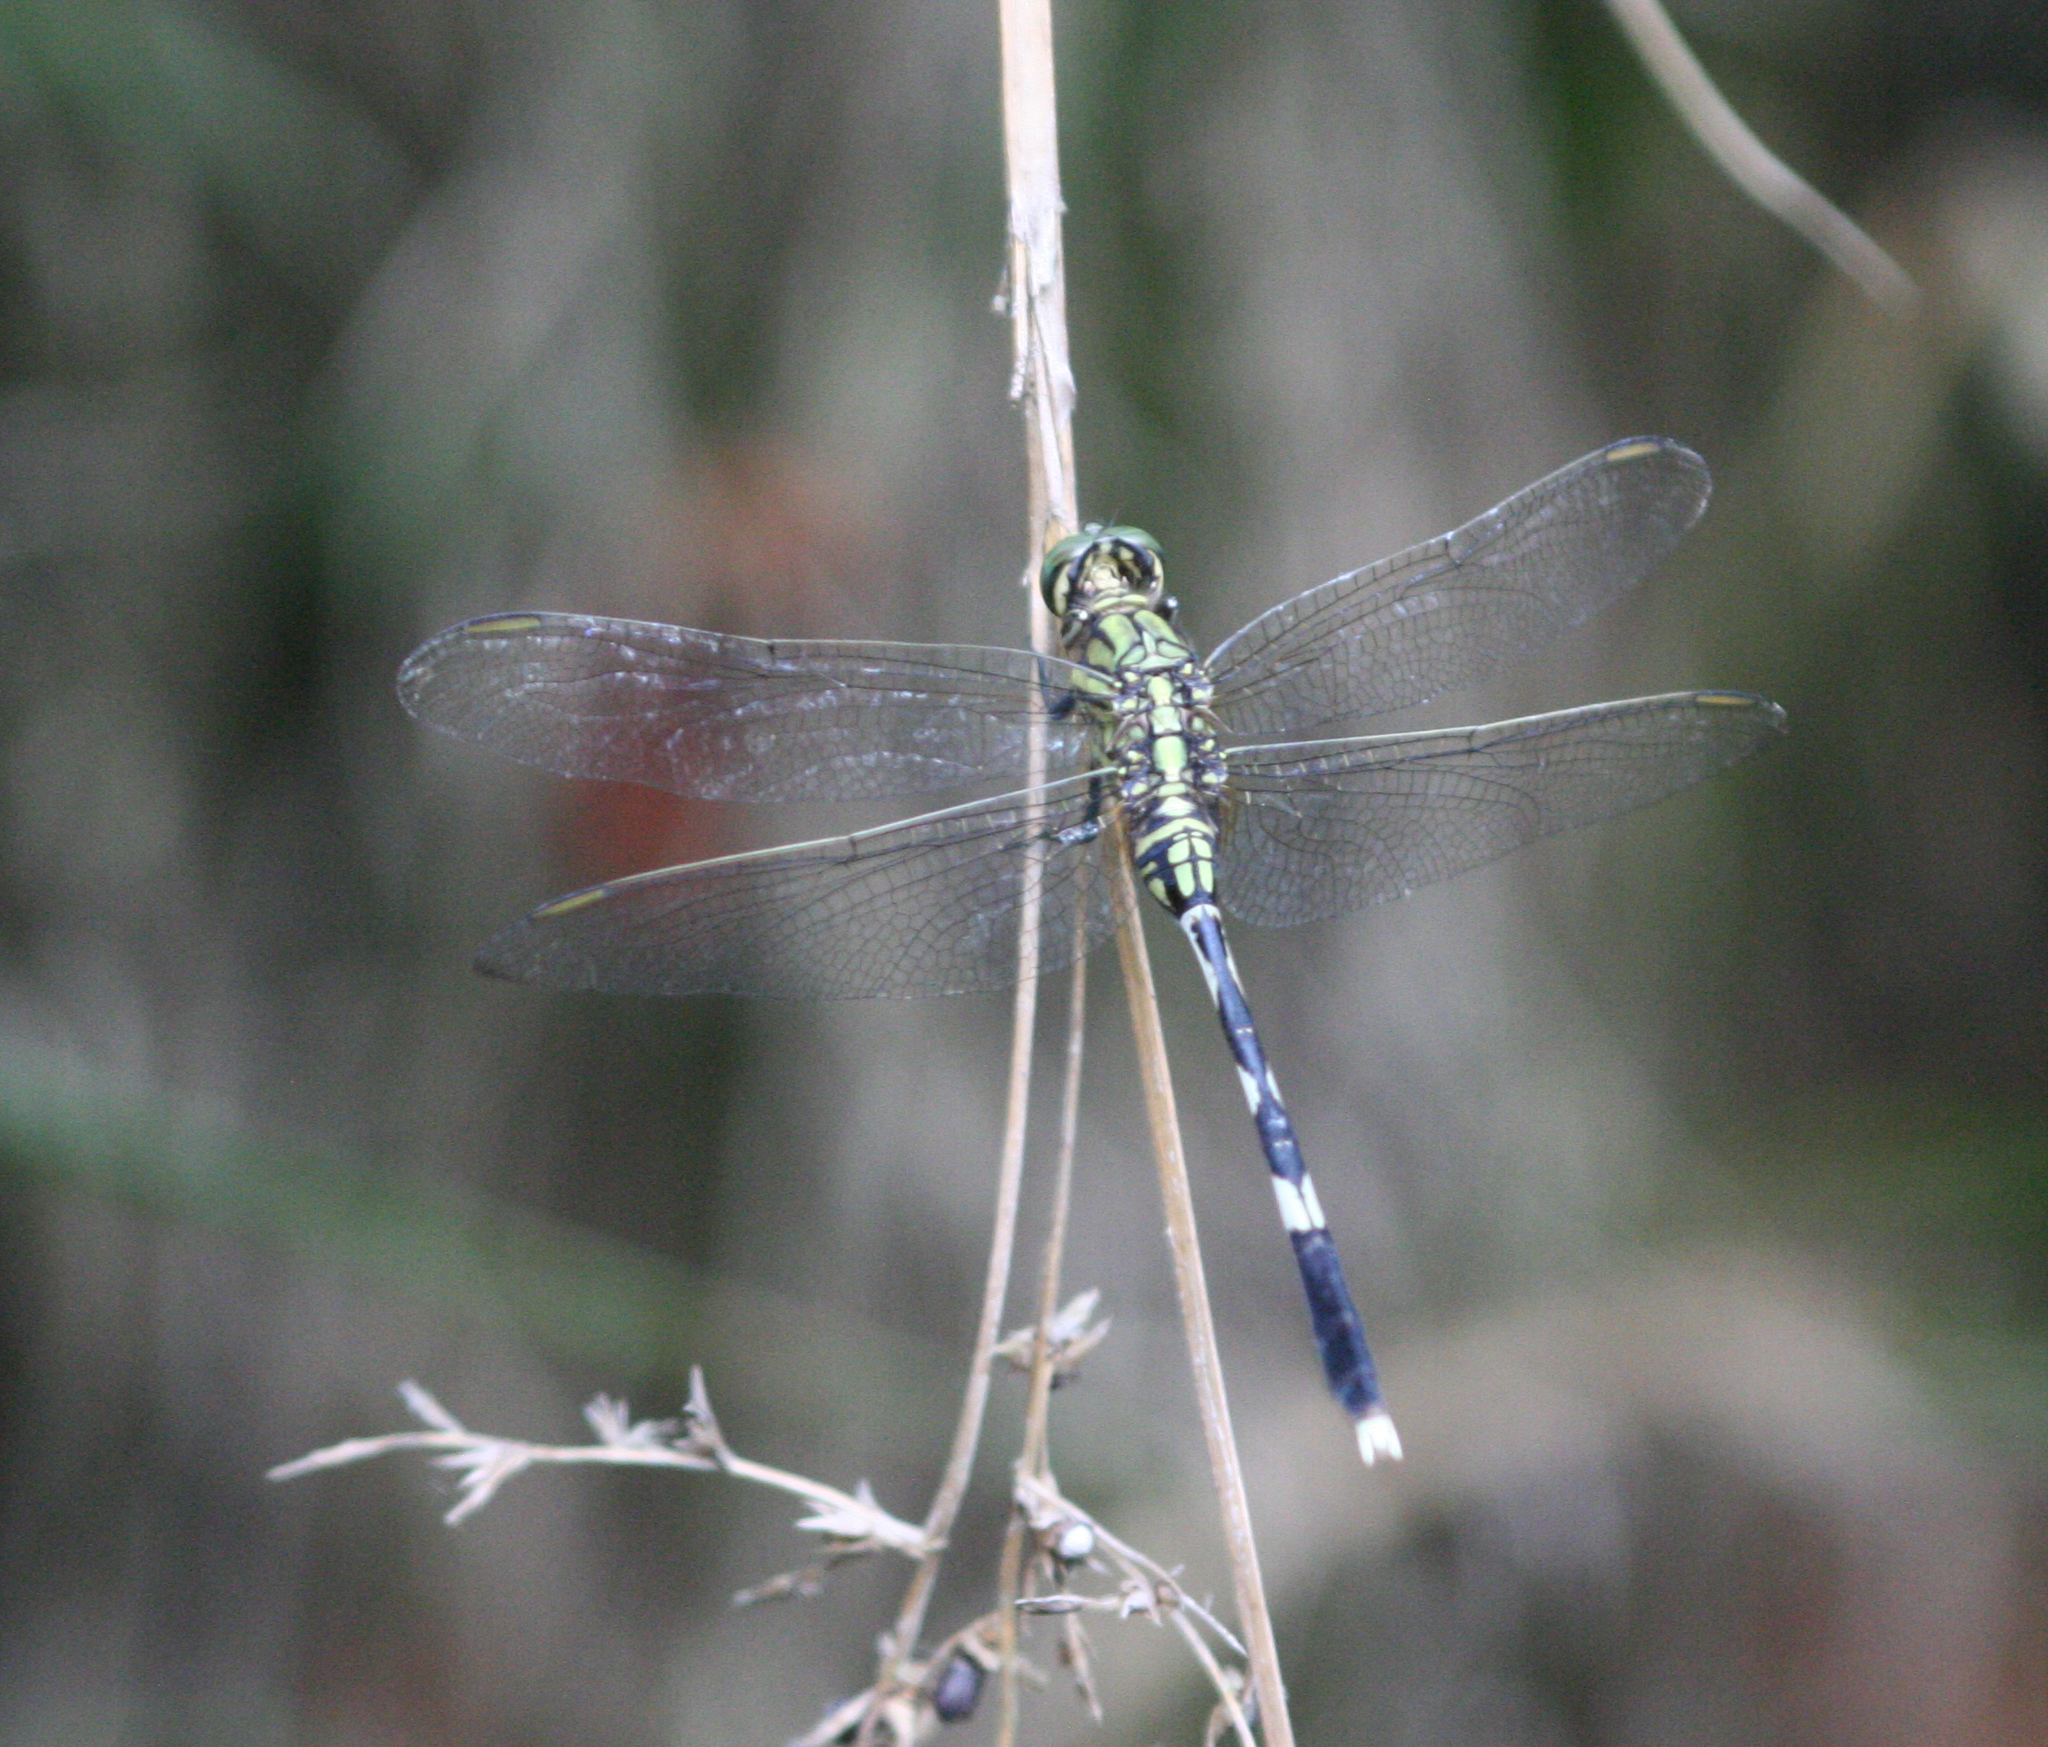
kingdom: Animalia
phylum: Arthropoda
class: Insecta
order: Odonata
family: Libellulidae
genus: Orthetrum
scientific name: Orthetrum sabina
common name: Slender skimmer
